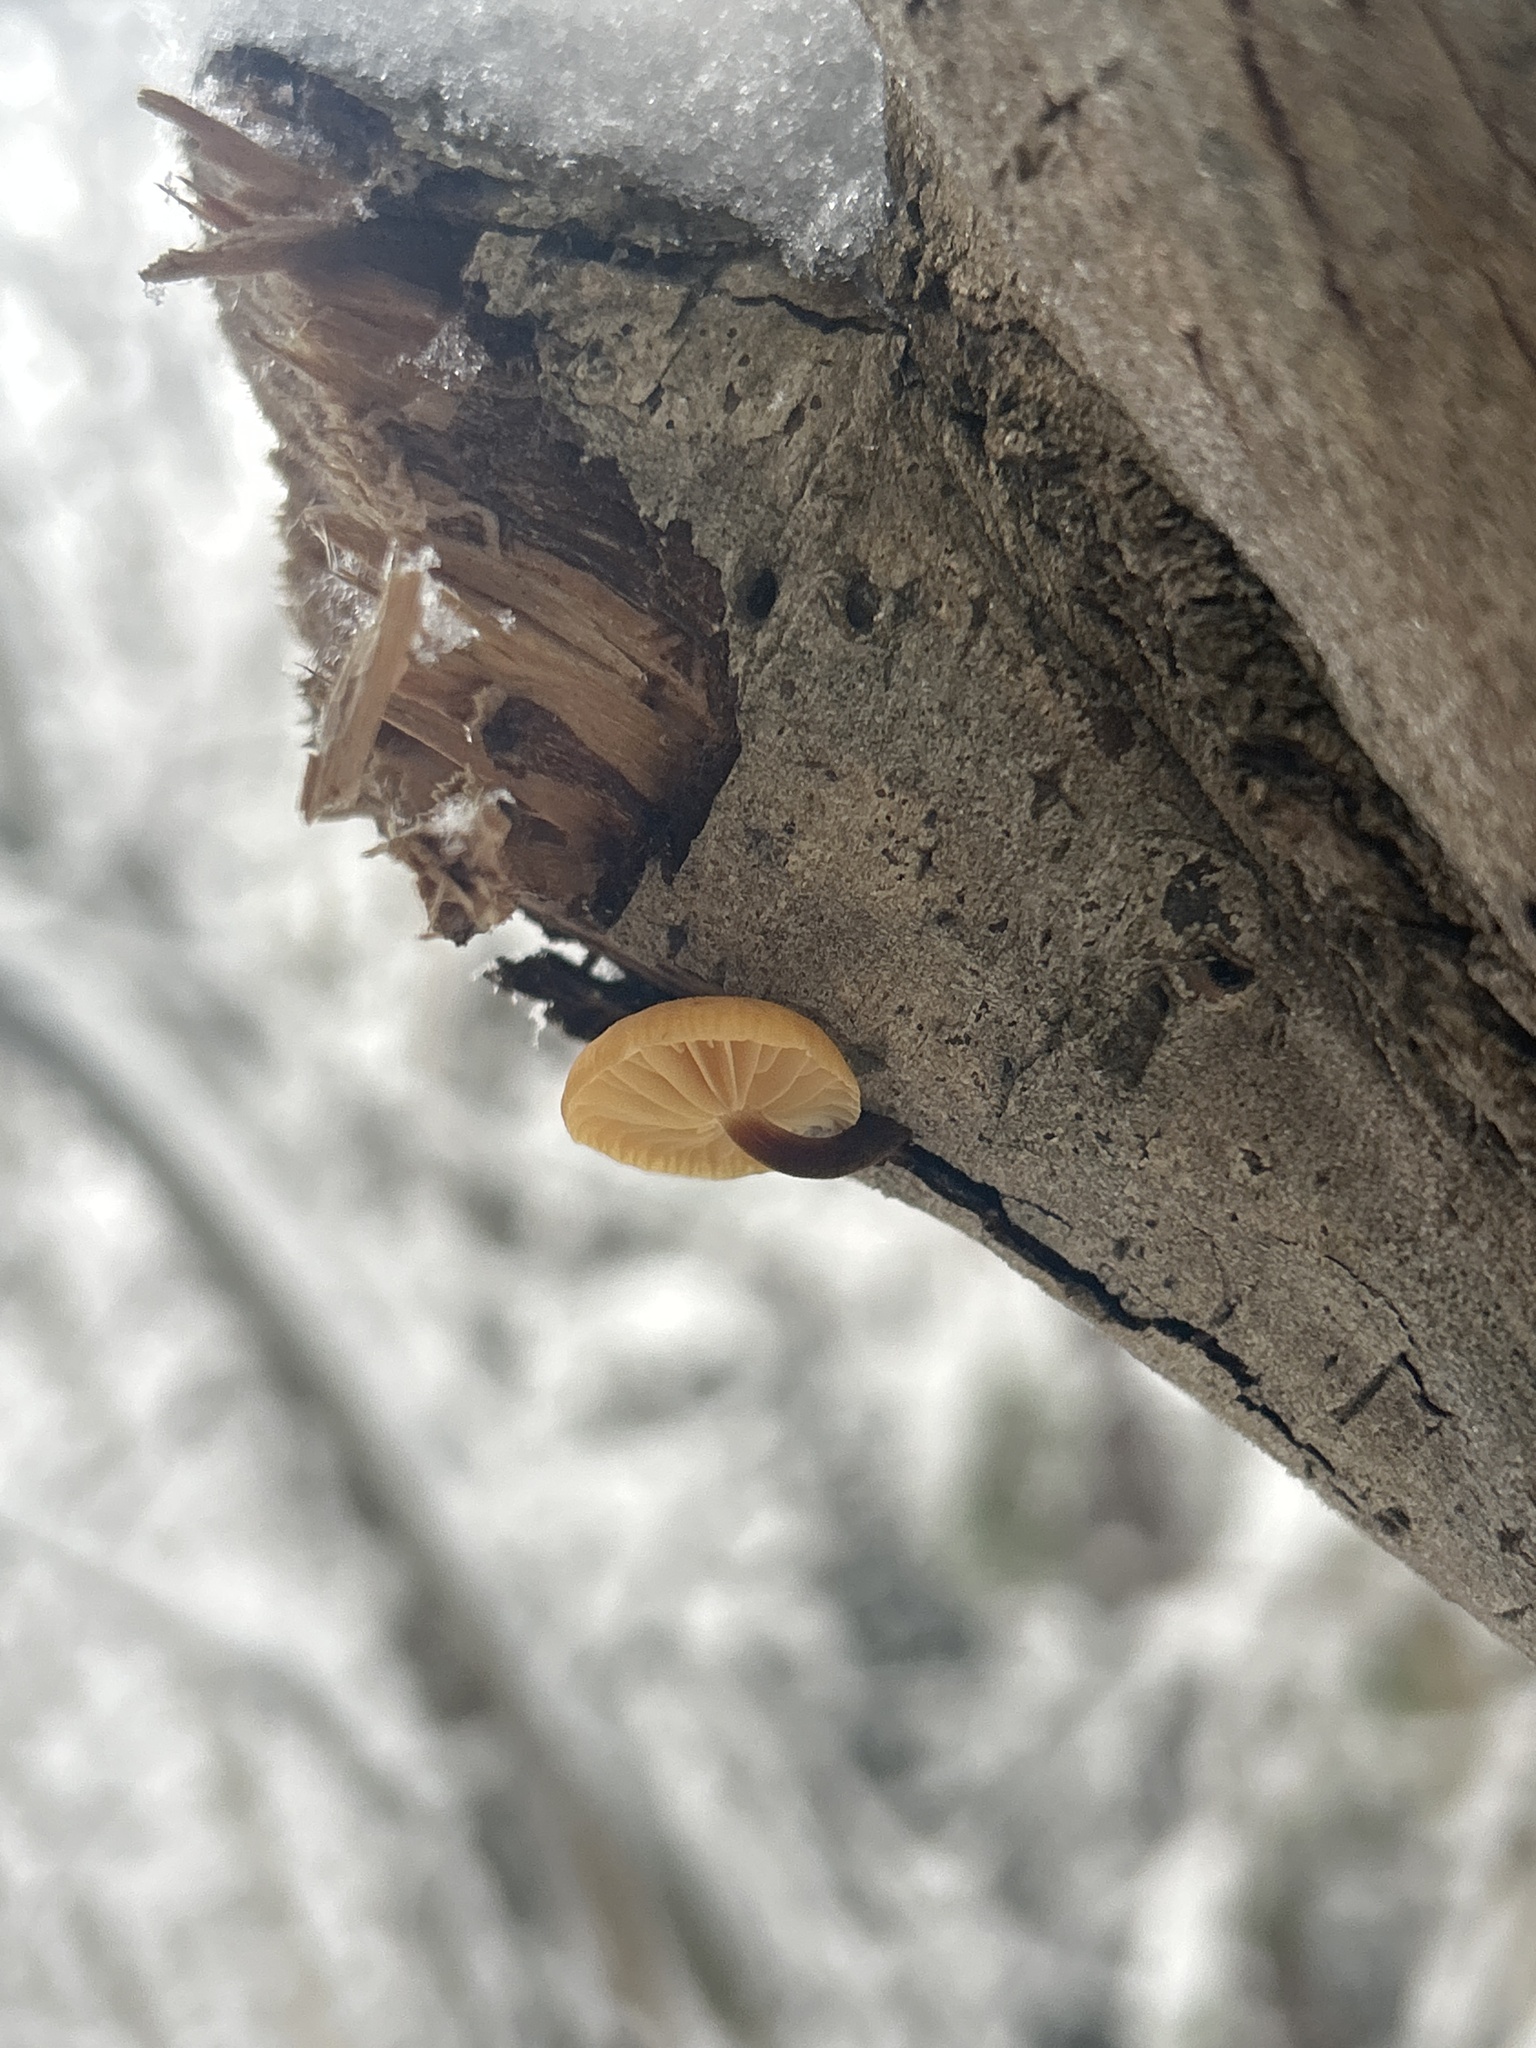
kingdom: Fungi
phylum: Basidiomycota
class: Agaricomycetes
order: Agaricales
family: Physalacriaceae
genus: Flammulina
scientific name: Flammulina
